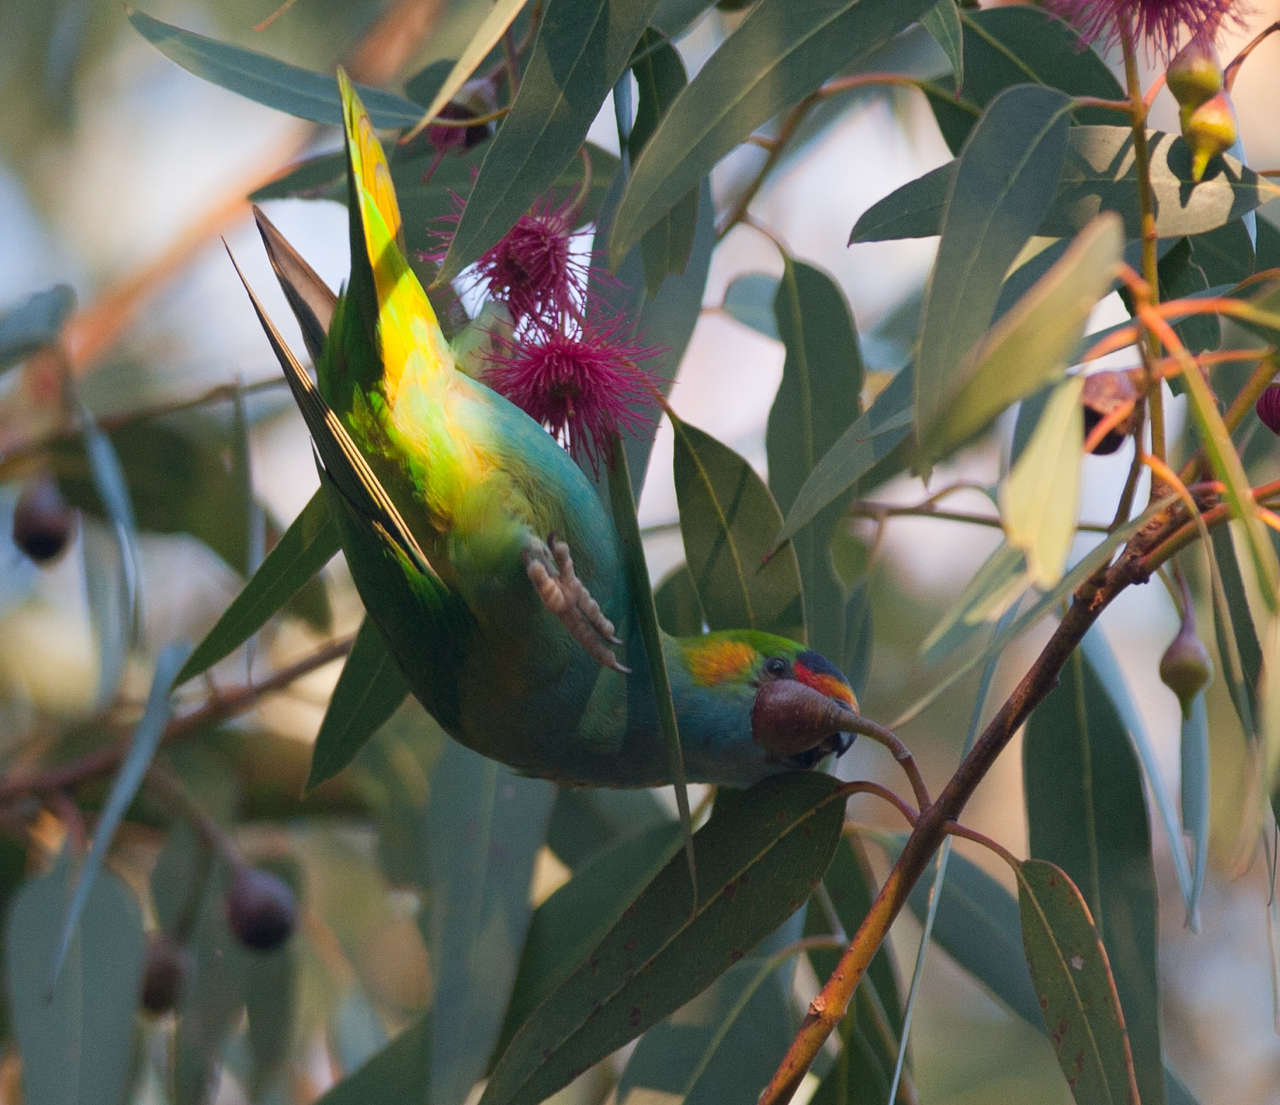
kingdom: Animalia
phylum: Chordata
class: Aves
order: Psittaciformes
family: Psittaculidae
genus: Parvipsitta
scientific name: Parvipsitta porphyrocephala
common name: Purple-crowned lorikeet
